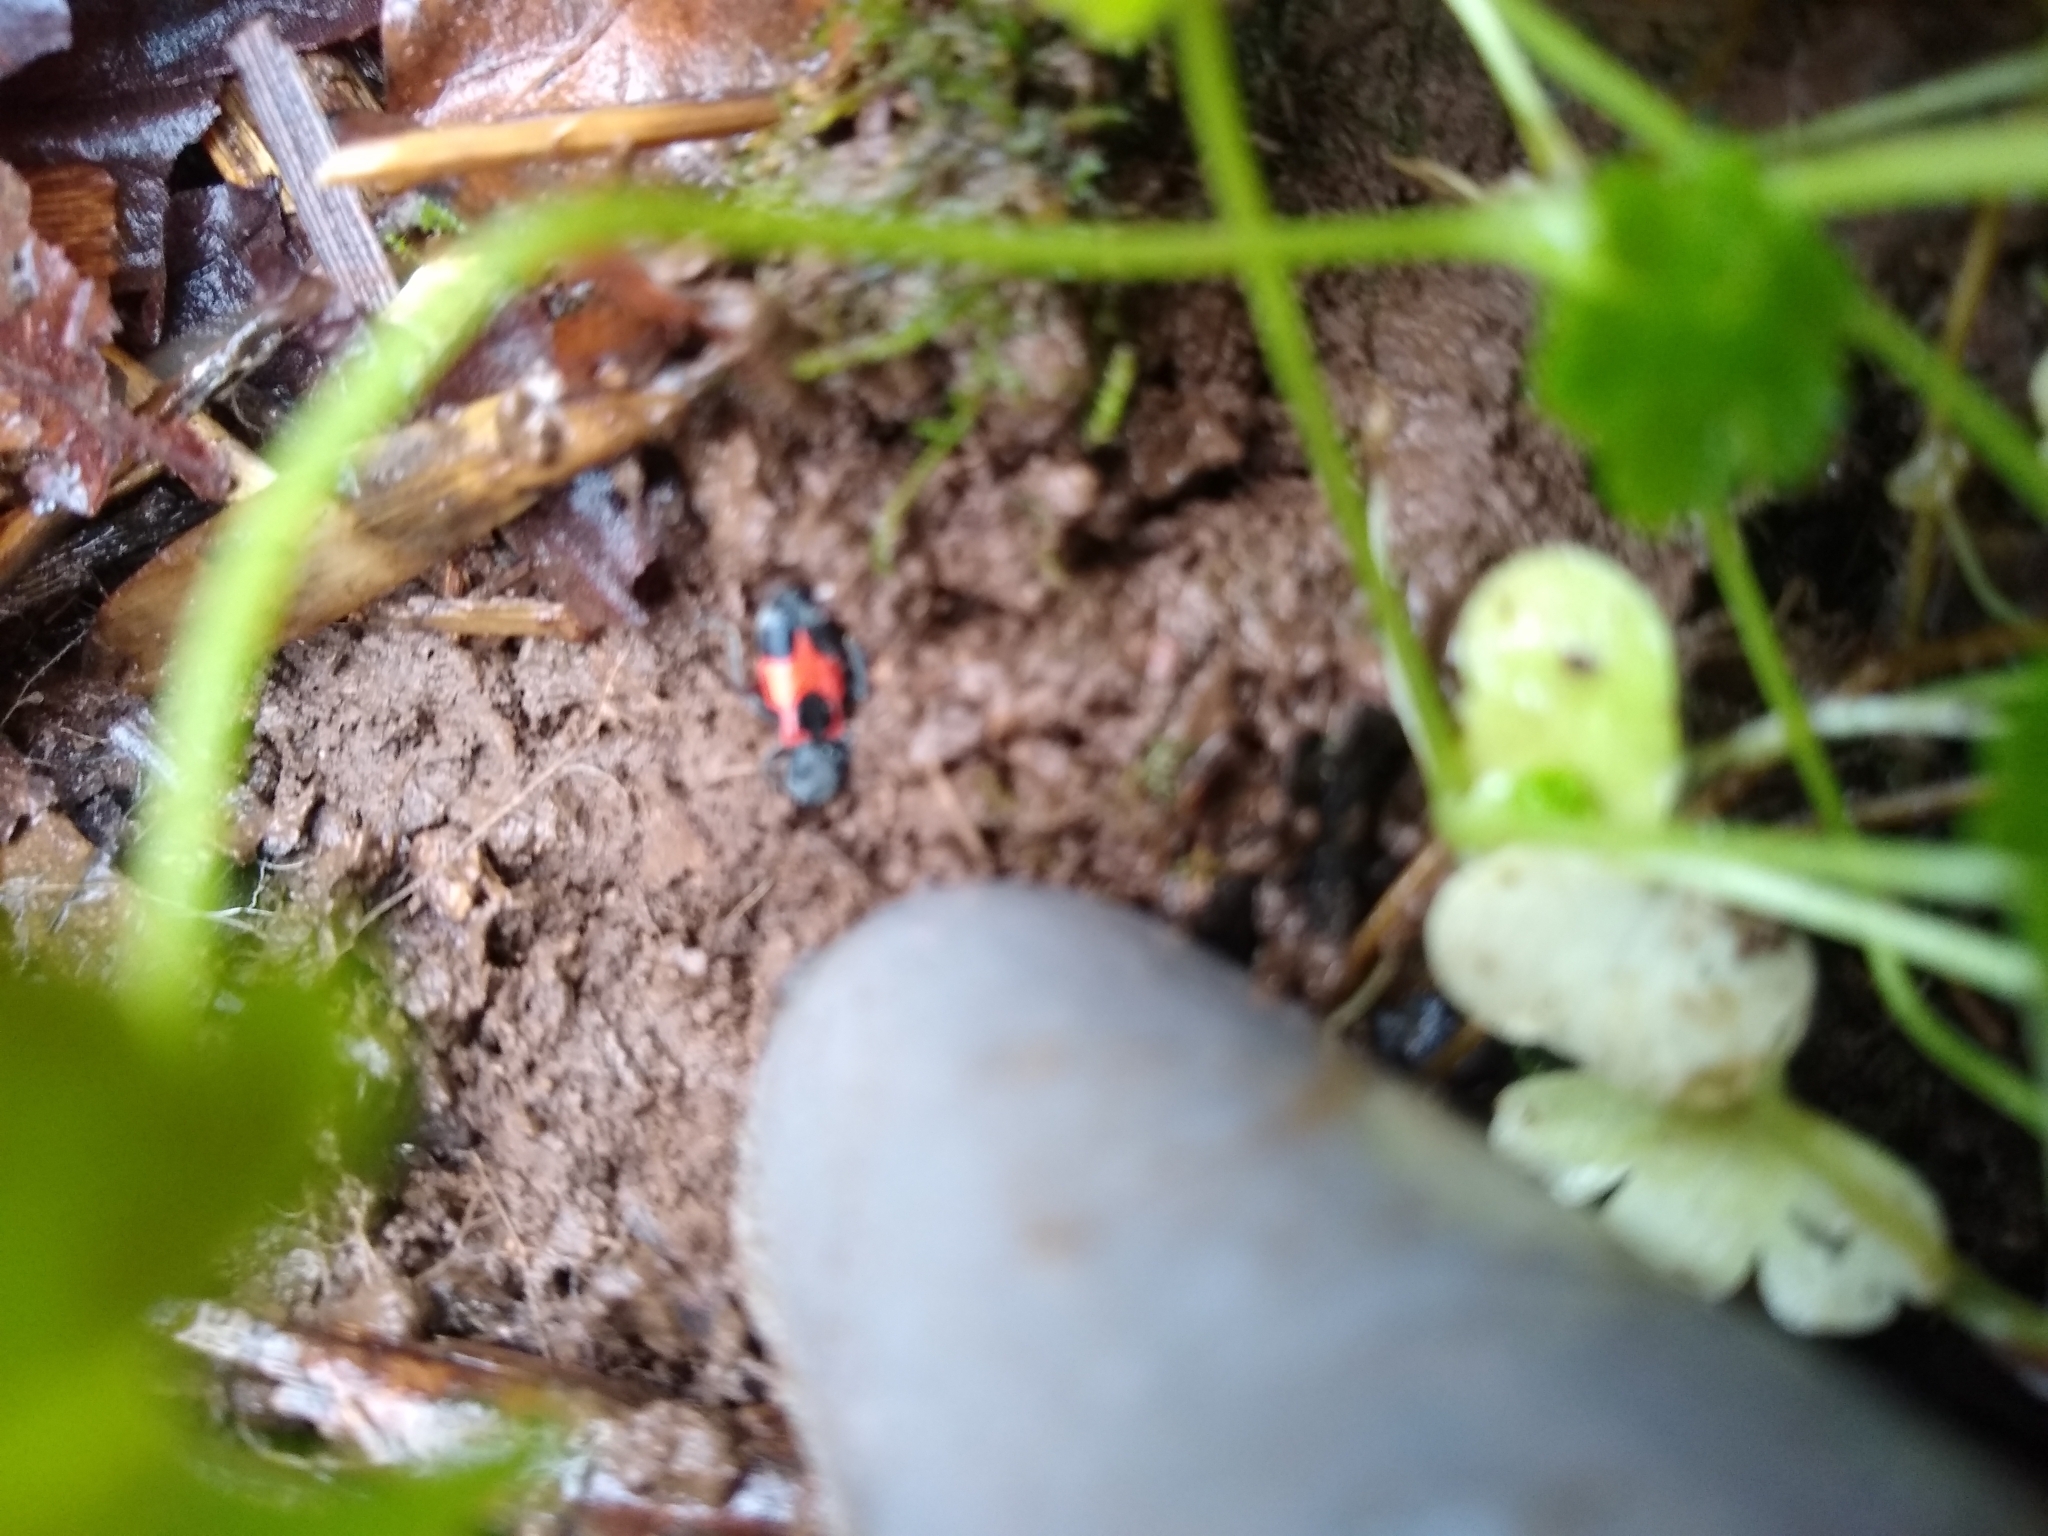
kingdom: Animalia
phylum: Arthropoda
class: Insecta
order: Coleoptera
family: Cleridae
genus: Enoclerus
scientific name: Enoclerus eximius
